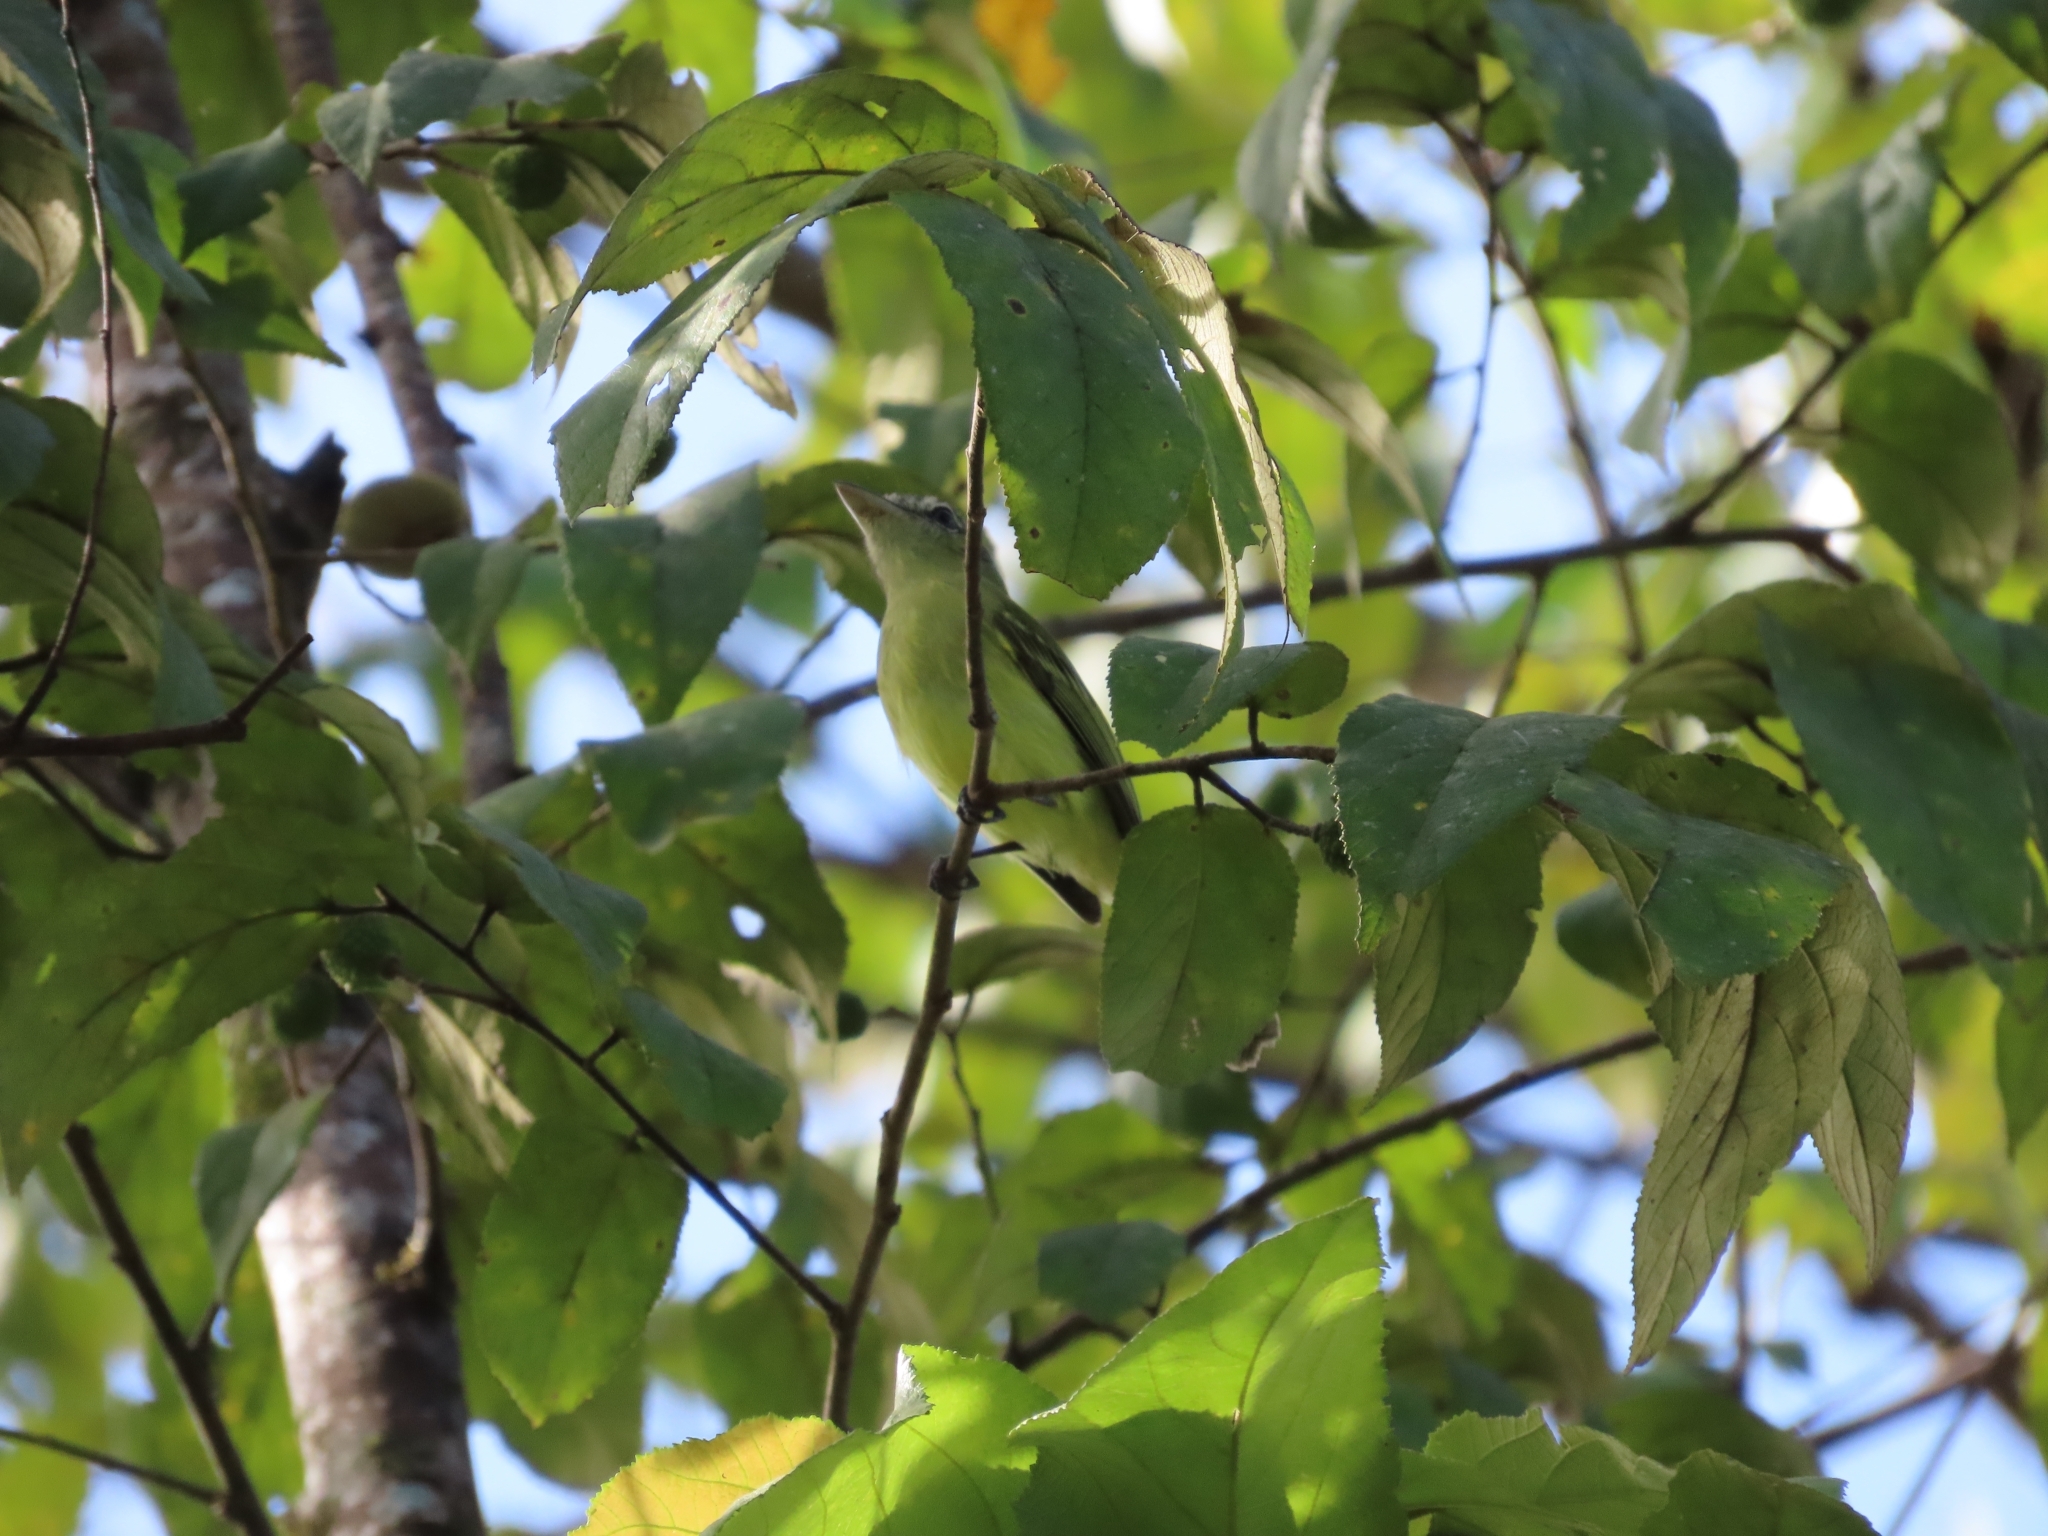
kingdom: Animalia
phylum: Chordata
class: Aves
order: Passeriformes
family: Tyrannidae
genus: Tolmomyias
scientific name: Tolmomyias sulphurescens
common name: Yellow-olive flycatcher
